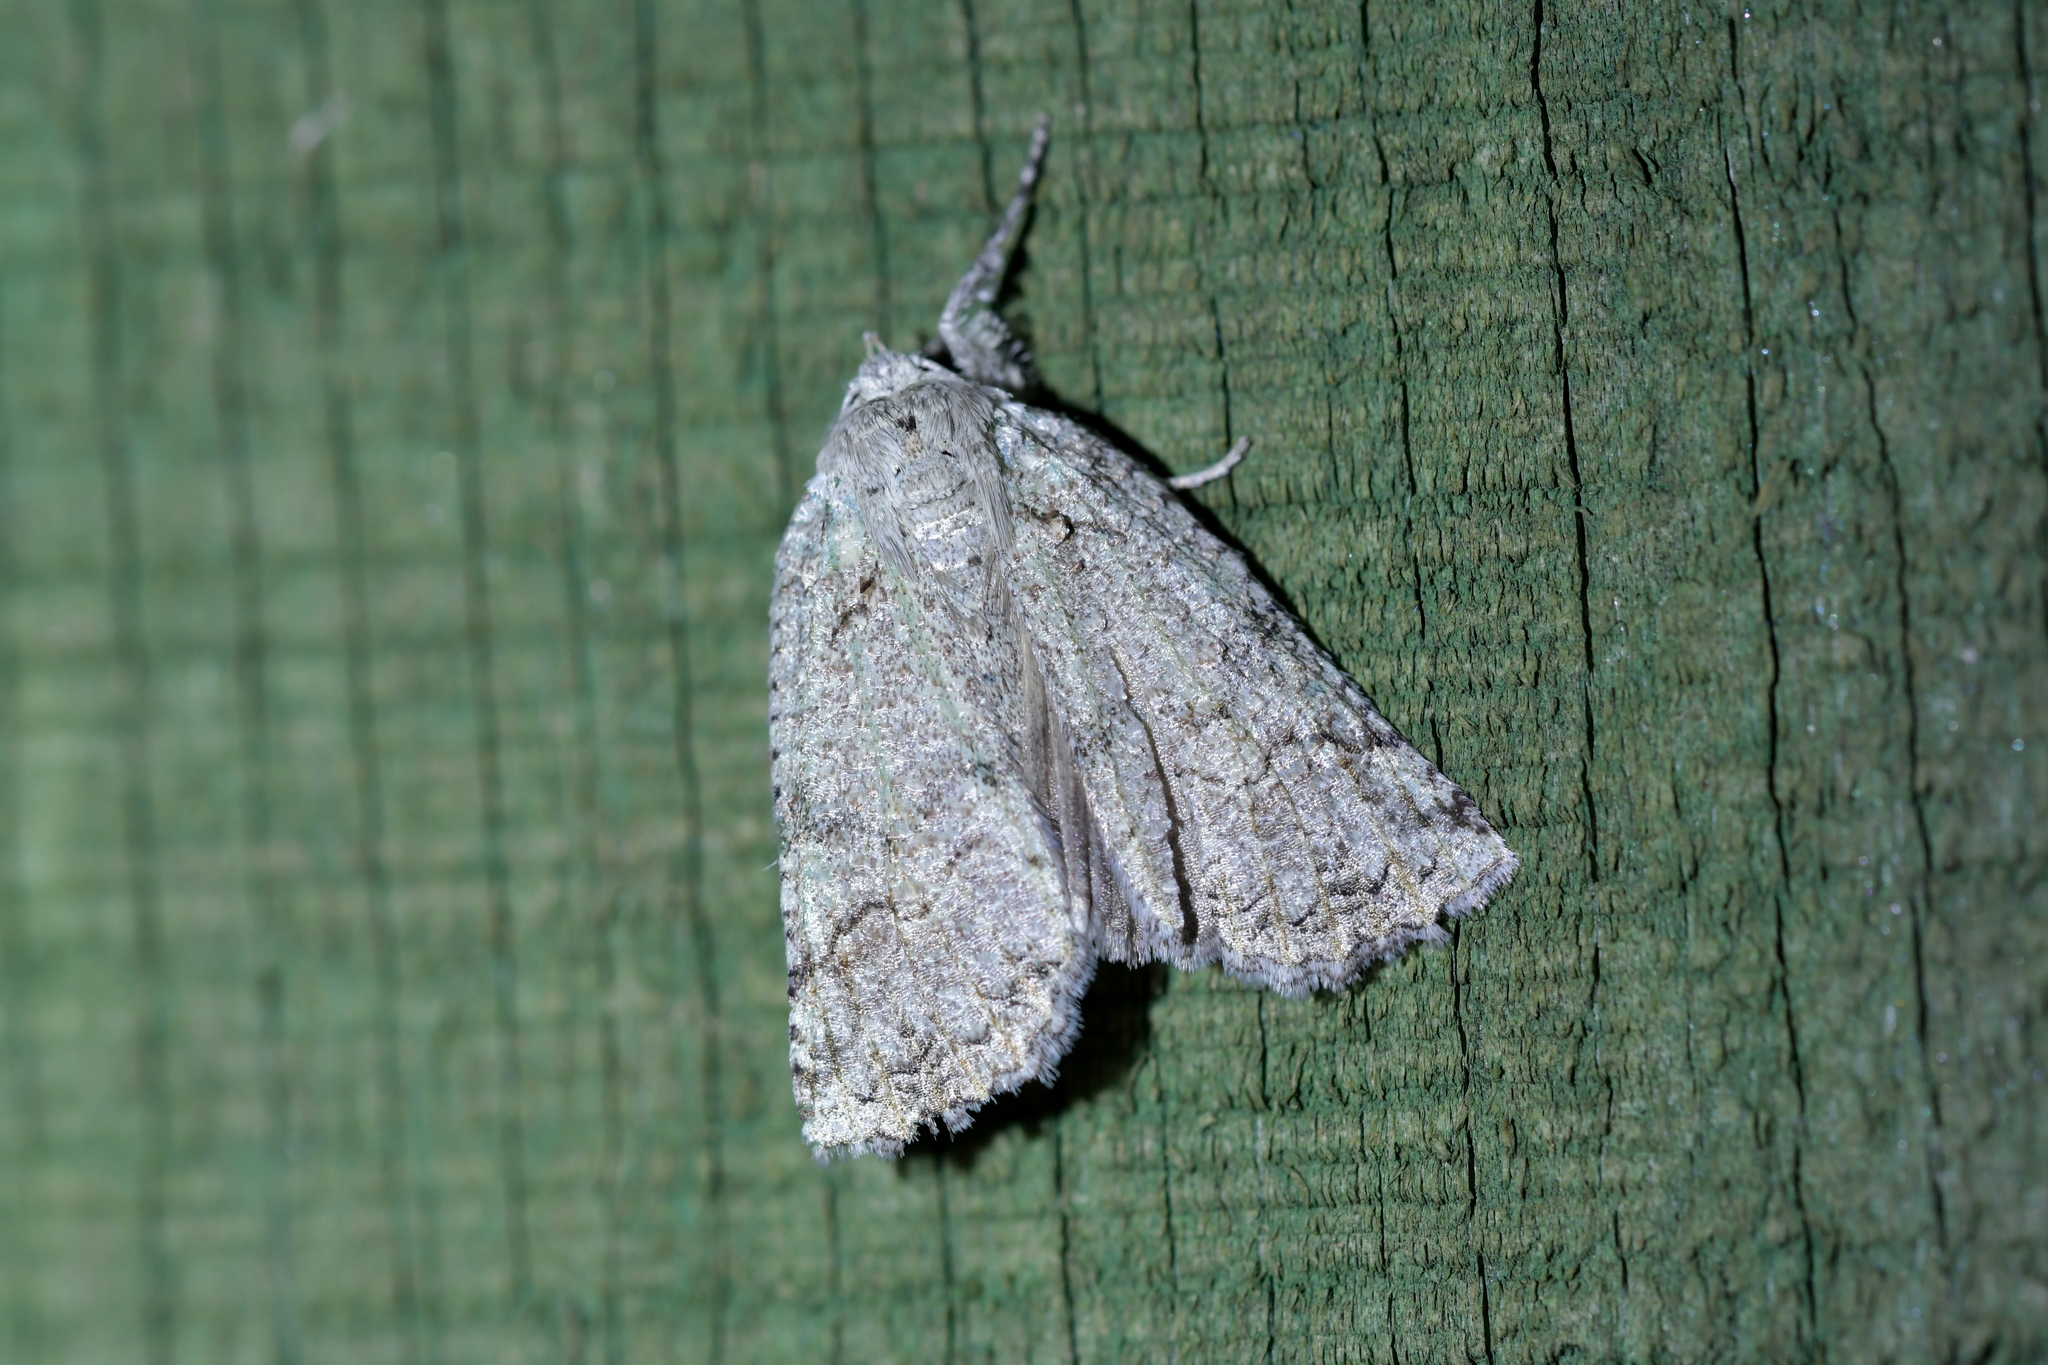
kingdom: Animalia
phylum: Arthropoda
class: Insecta
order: Lepidoptera
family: Geometridae
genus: Declana
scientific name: Declana floccosa
